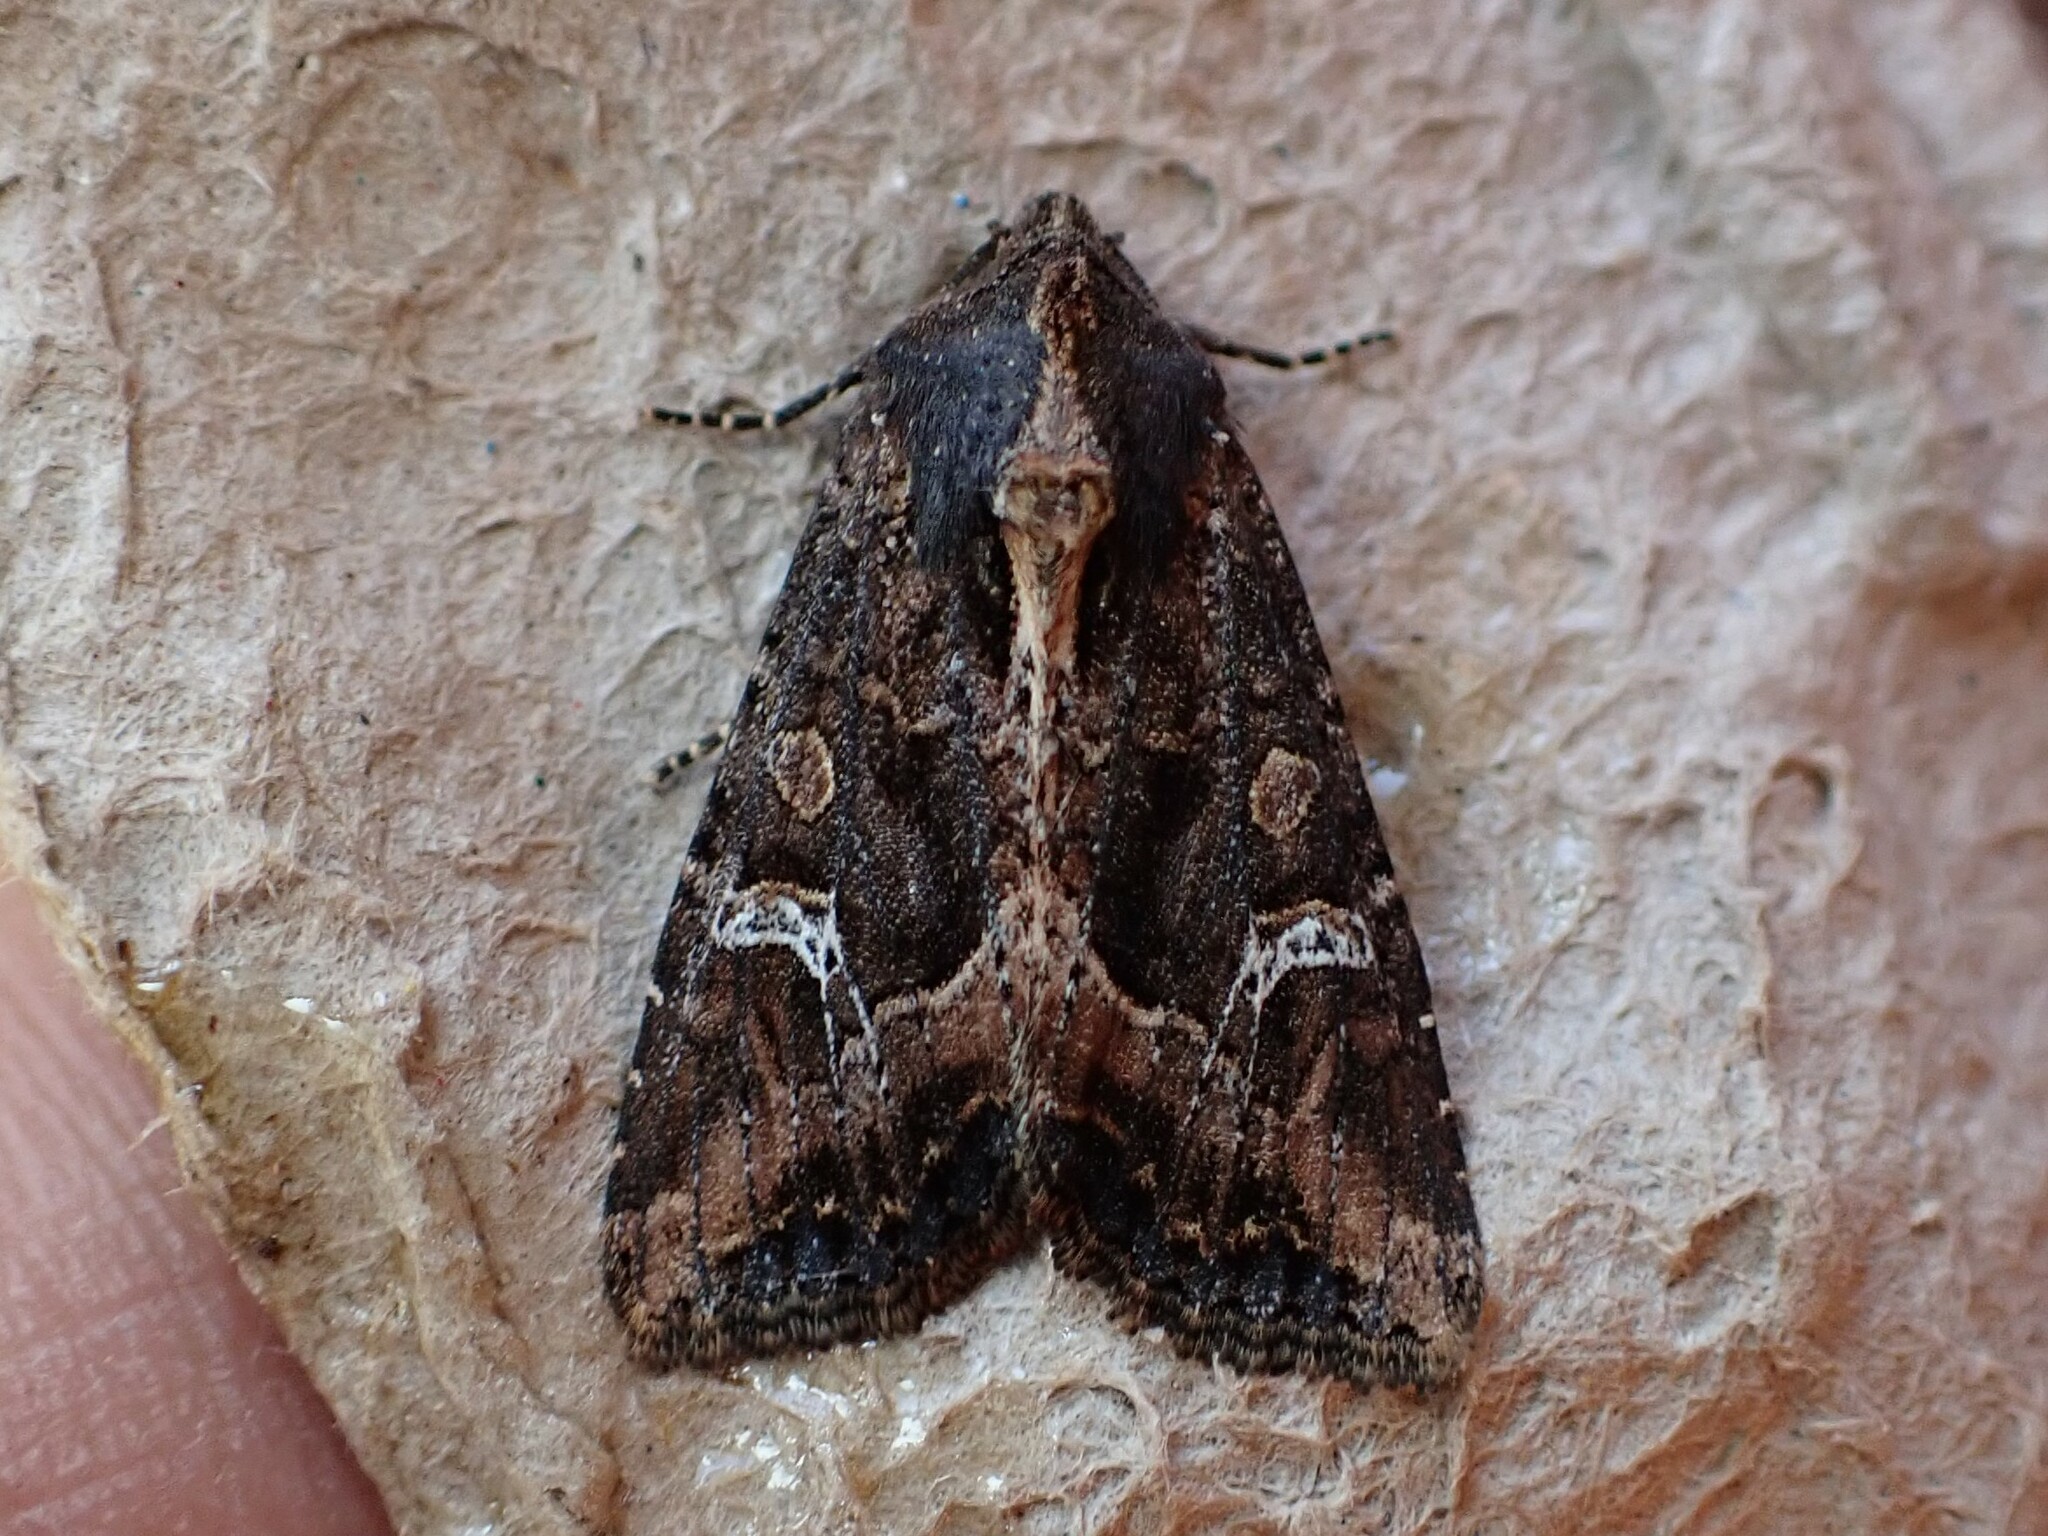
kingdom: Animalia
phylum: Arthropoda
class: Insecta
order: Lepidoptera
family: Noctuidae
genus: Helotropha
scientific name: Helotropha reniformis
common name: Kidney-spotted rustic moth
